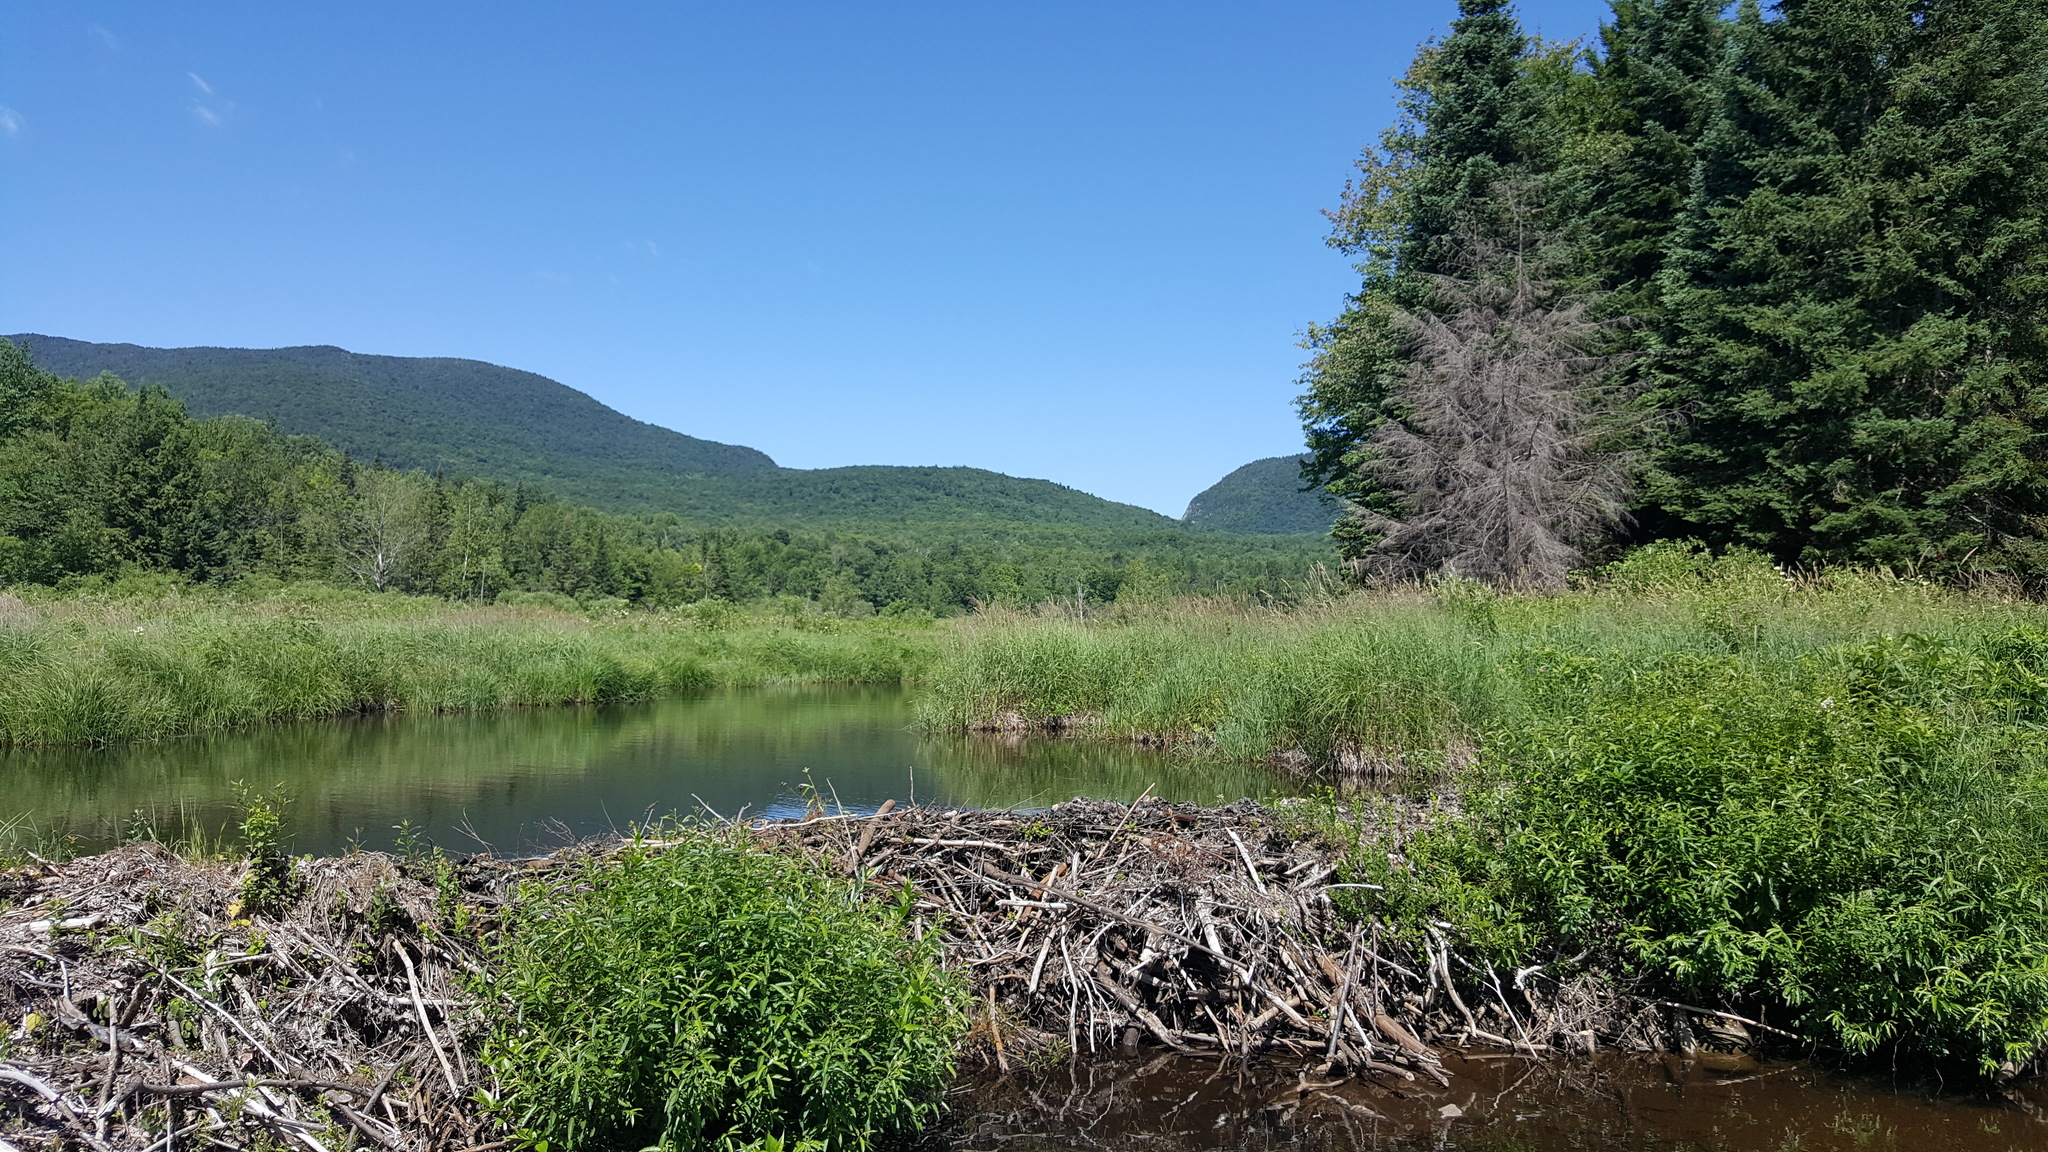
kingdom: Animalia
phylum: Chordata
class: Mammalia
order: Rodentia
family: Castoridae
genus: Castor
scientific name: Castor canadensis
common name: American beaver
